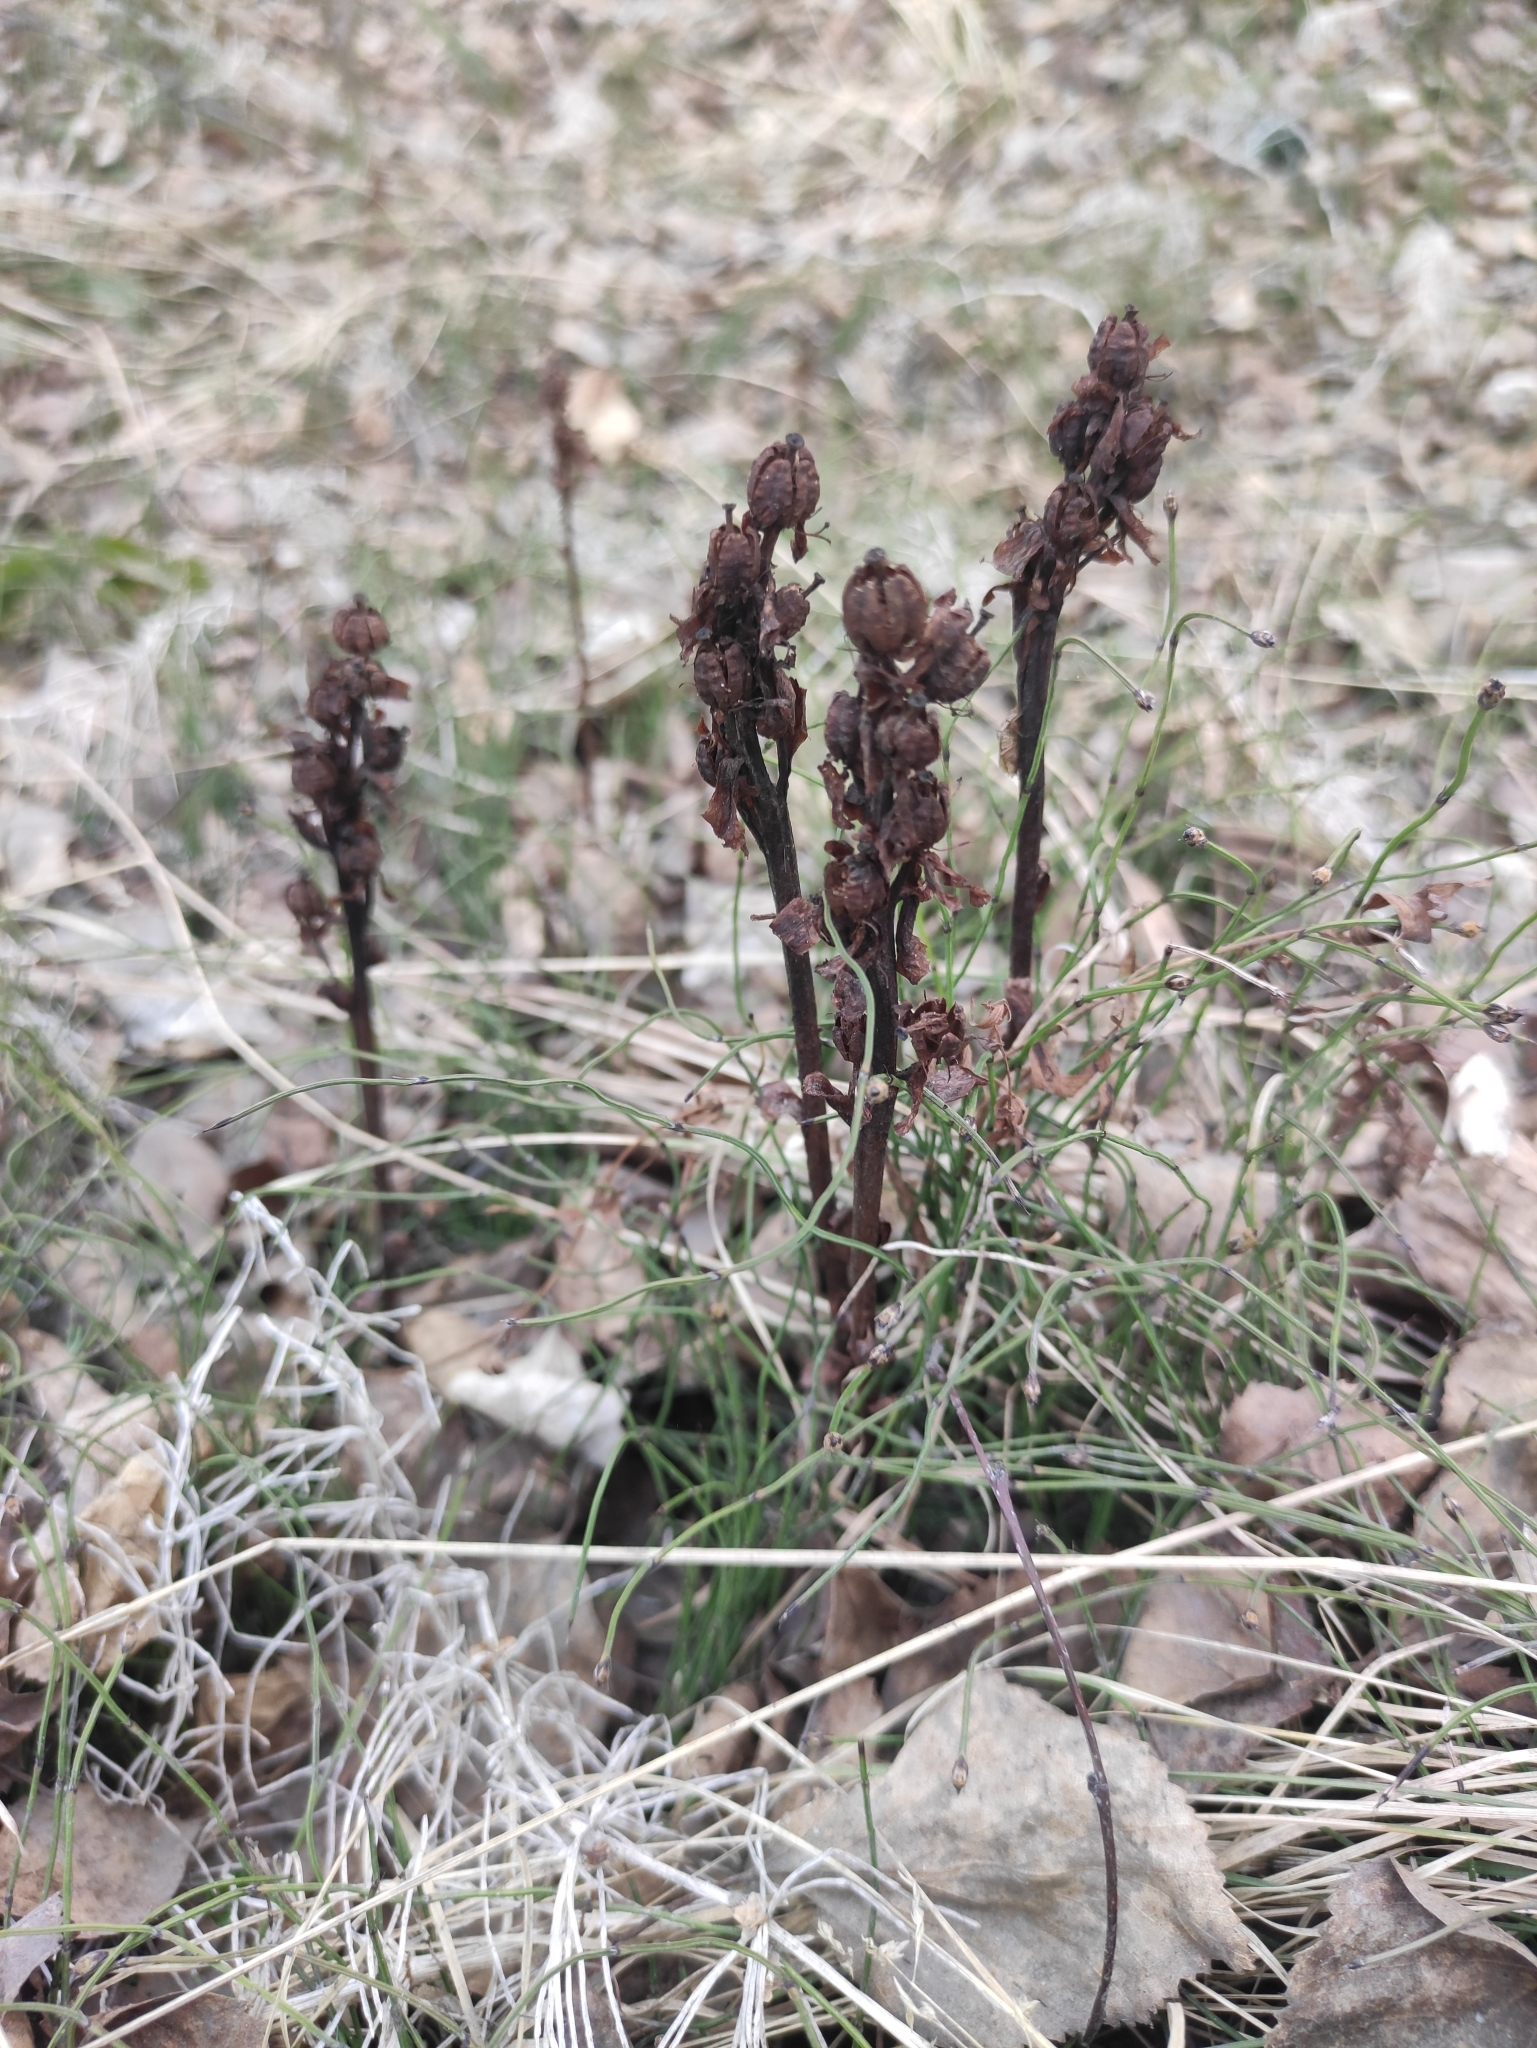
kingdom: Plantae
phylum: Tracheophyta
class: Magnoliopsida
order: Ericales
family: Ericaceae
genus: Hypopitys
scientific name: Hypopitys monotropa
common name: Yellow bird's-nest
